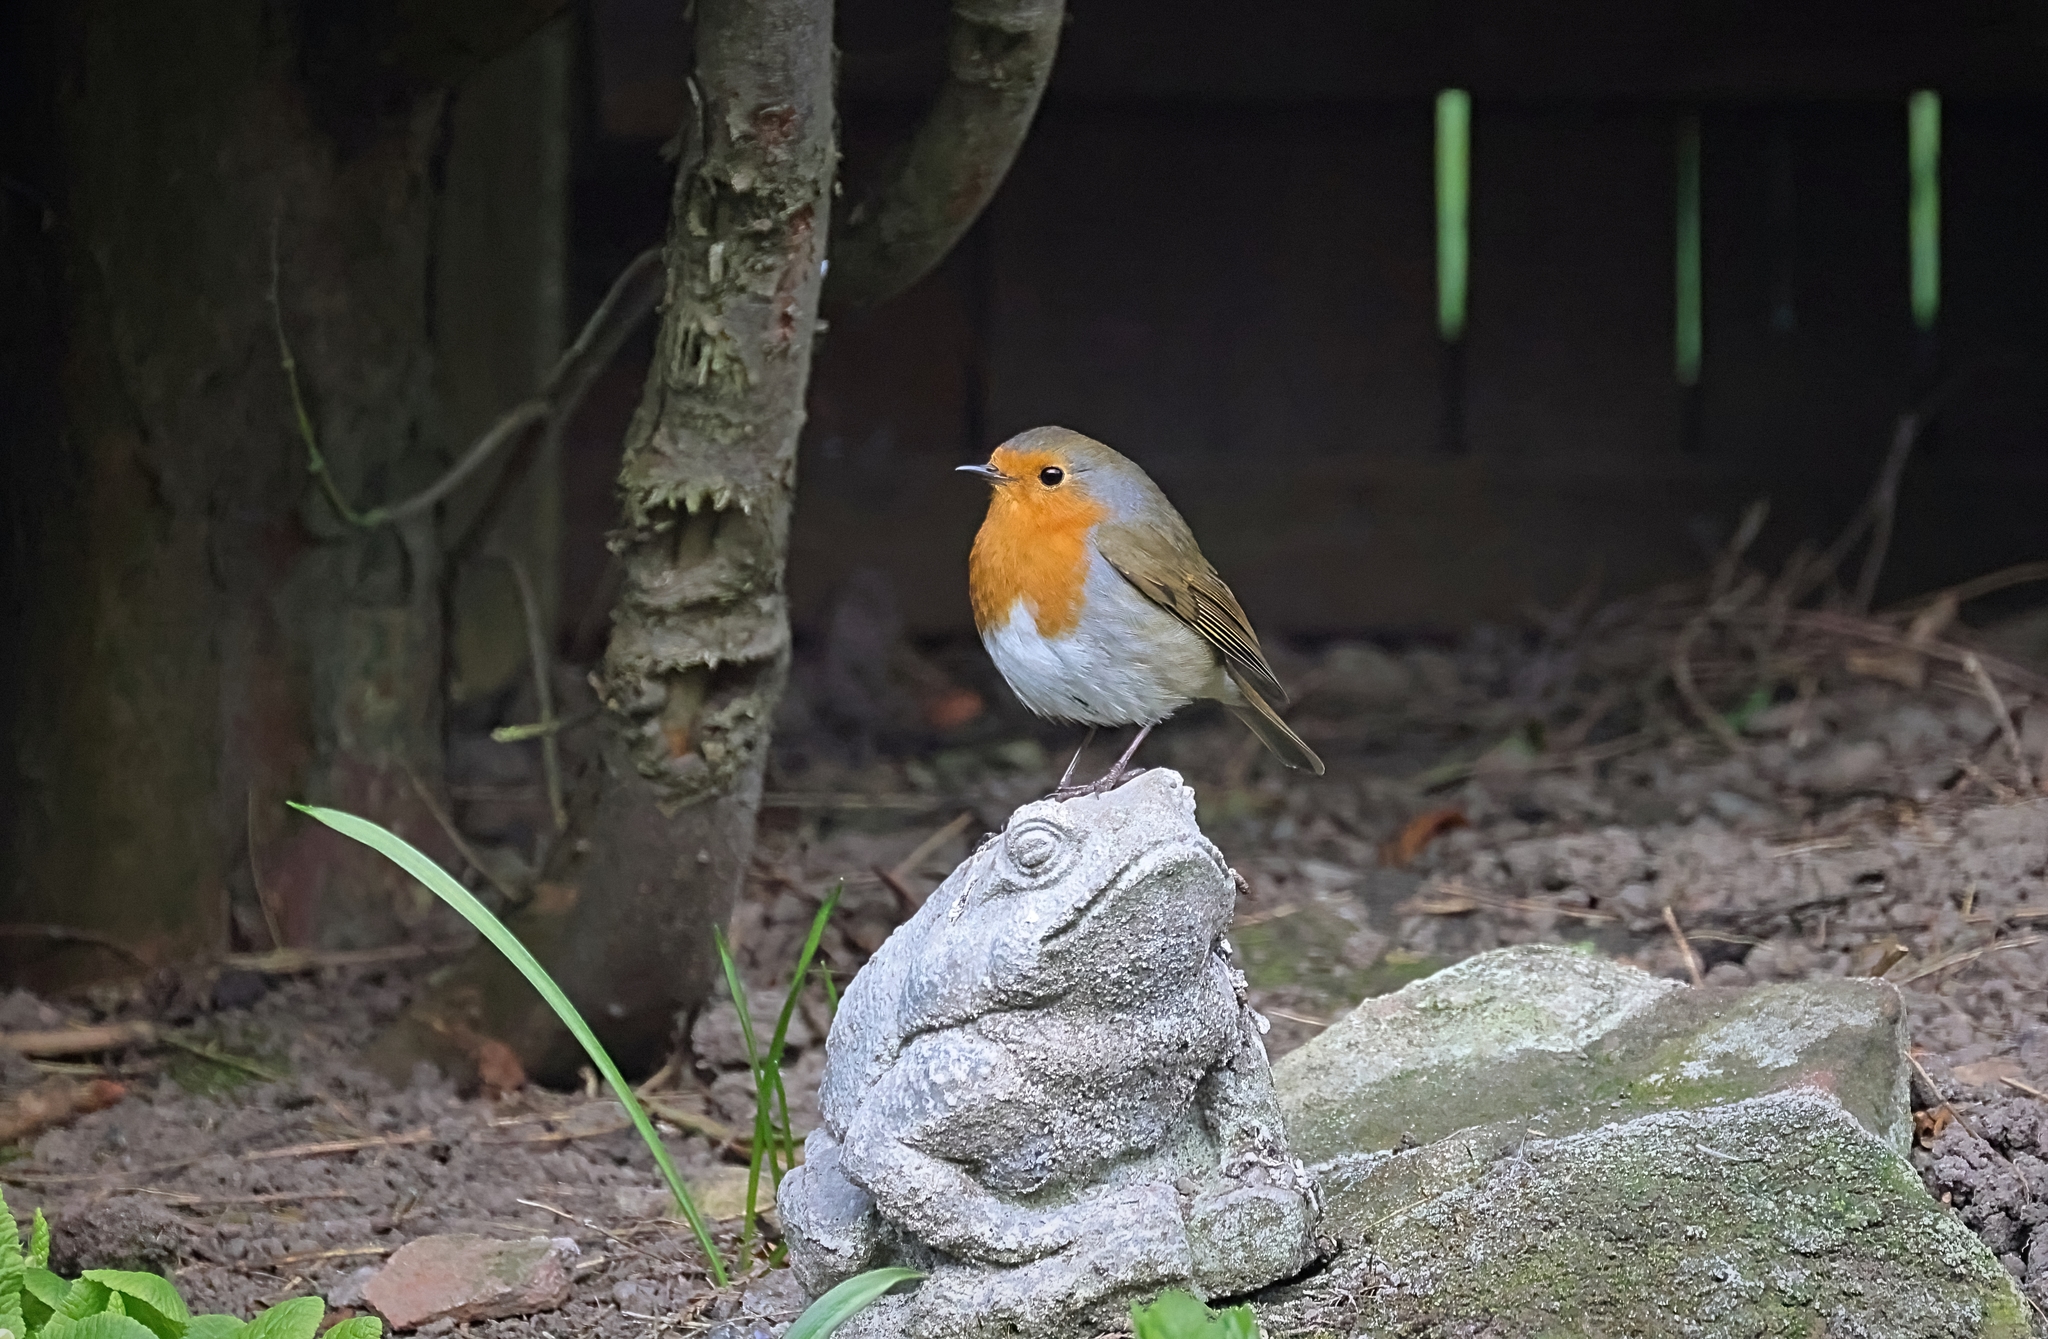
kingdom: Animalia
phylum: Chordata
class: Aves
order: Passeriformes
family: Muscicapidae
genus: Erithacus
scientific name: Erithacus rubecula
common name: European robin
